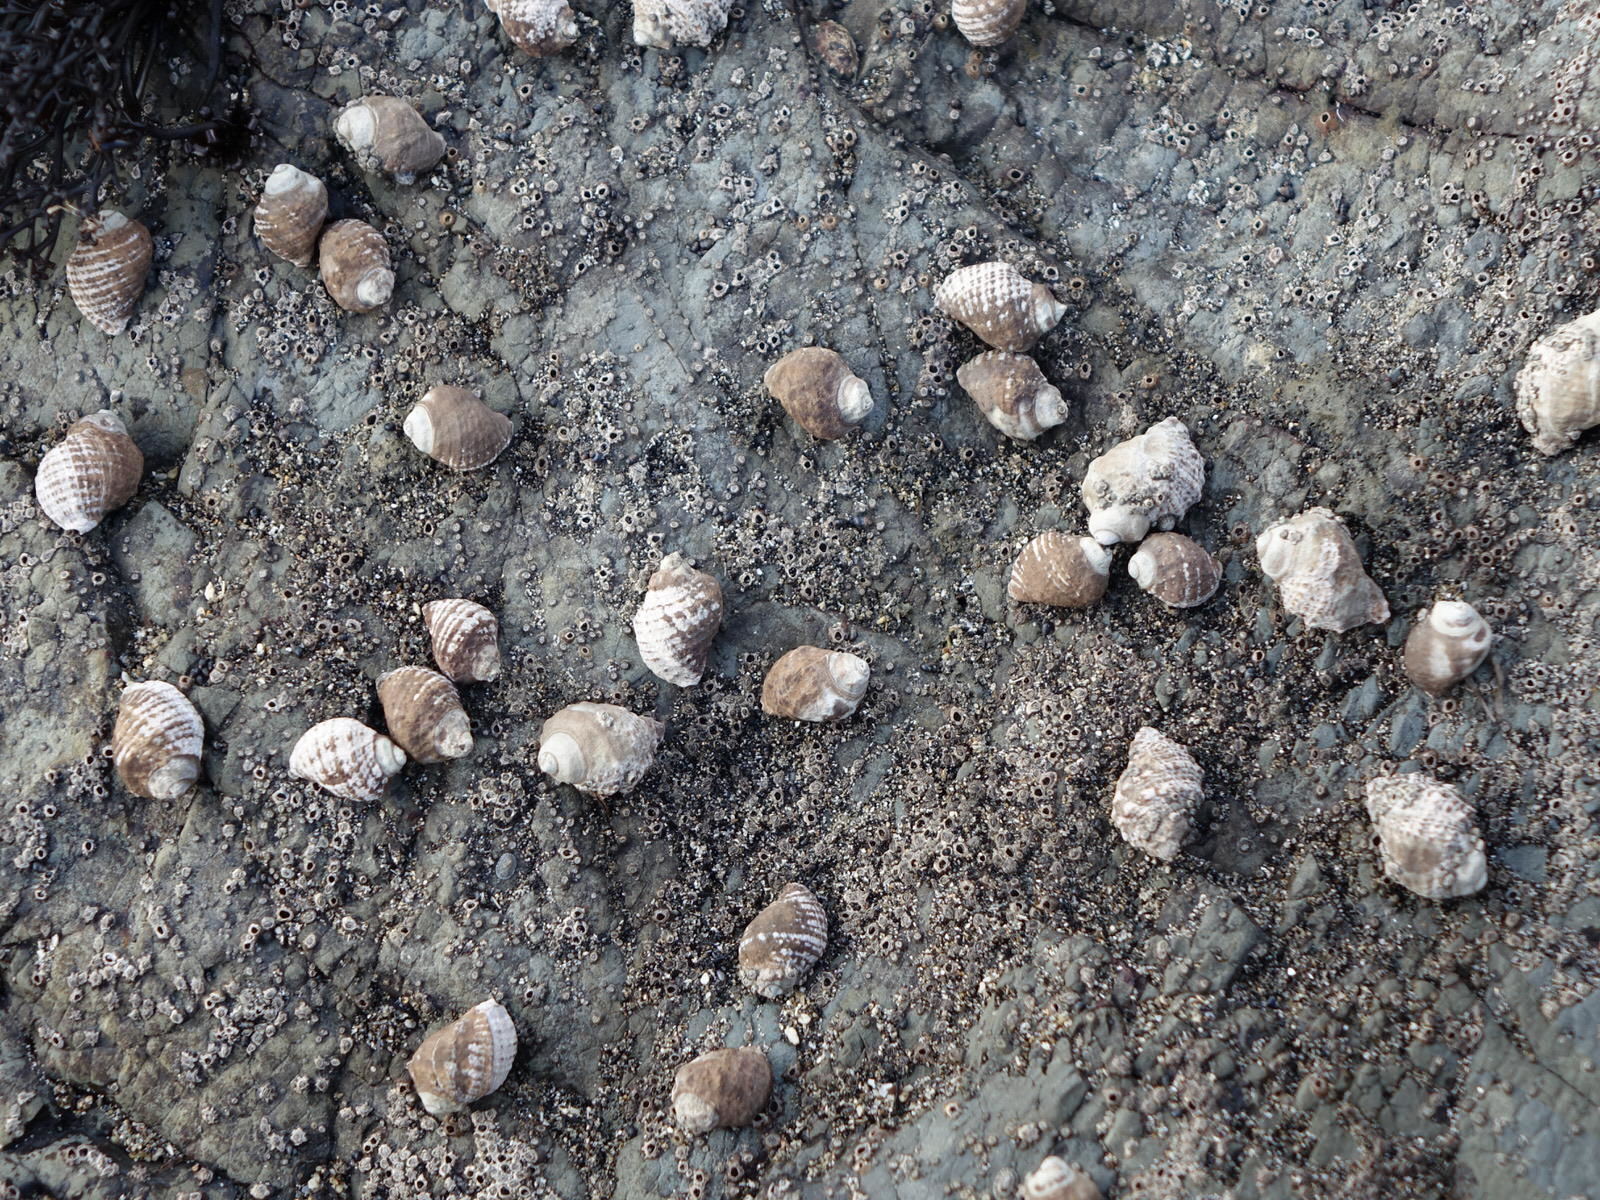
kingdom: Animalia
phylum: Mollusca
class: Gastropoda
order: Neogastropoda
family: Muricidae
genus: Haustrum
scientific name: Haustrum scobina
